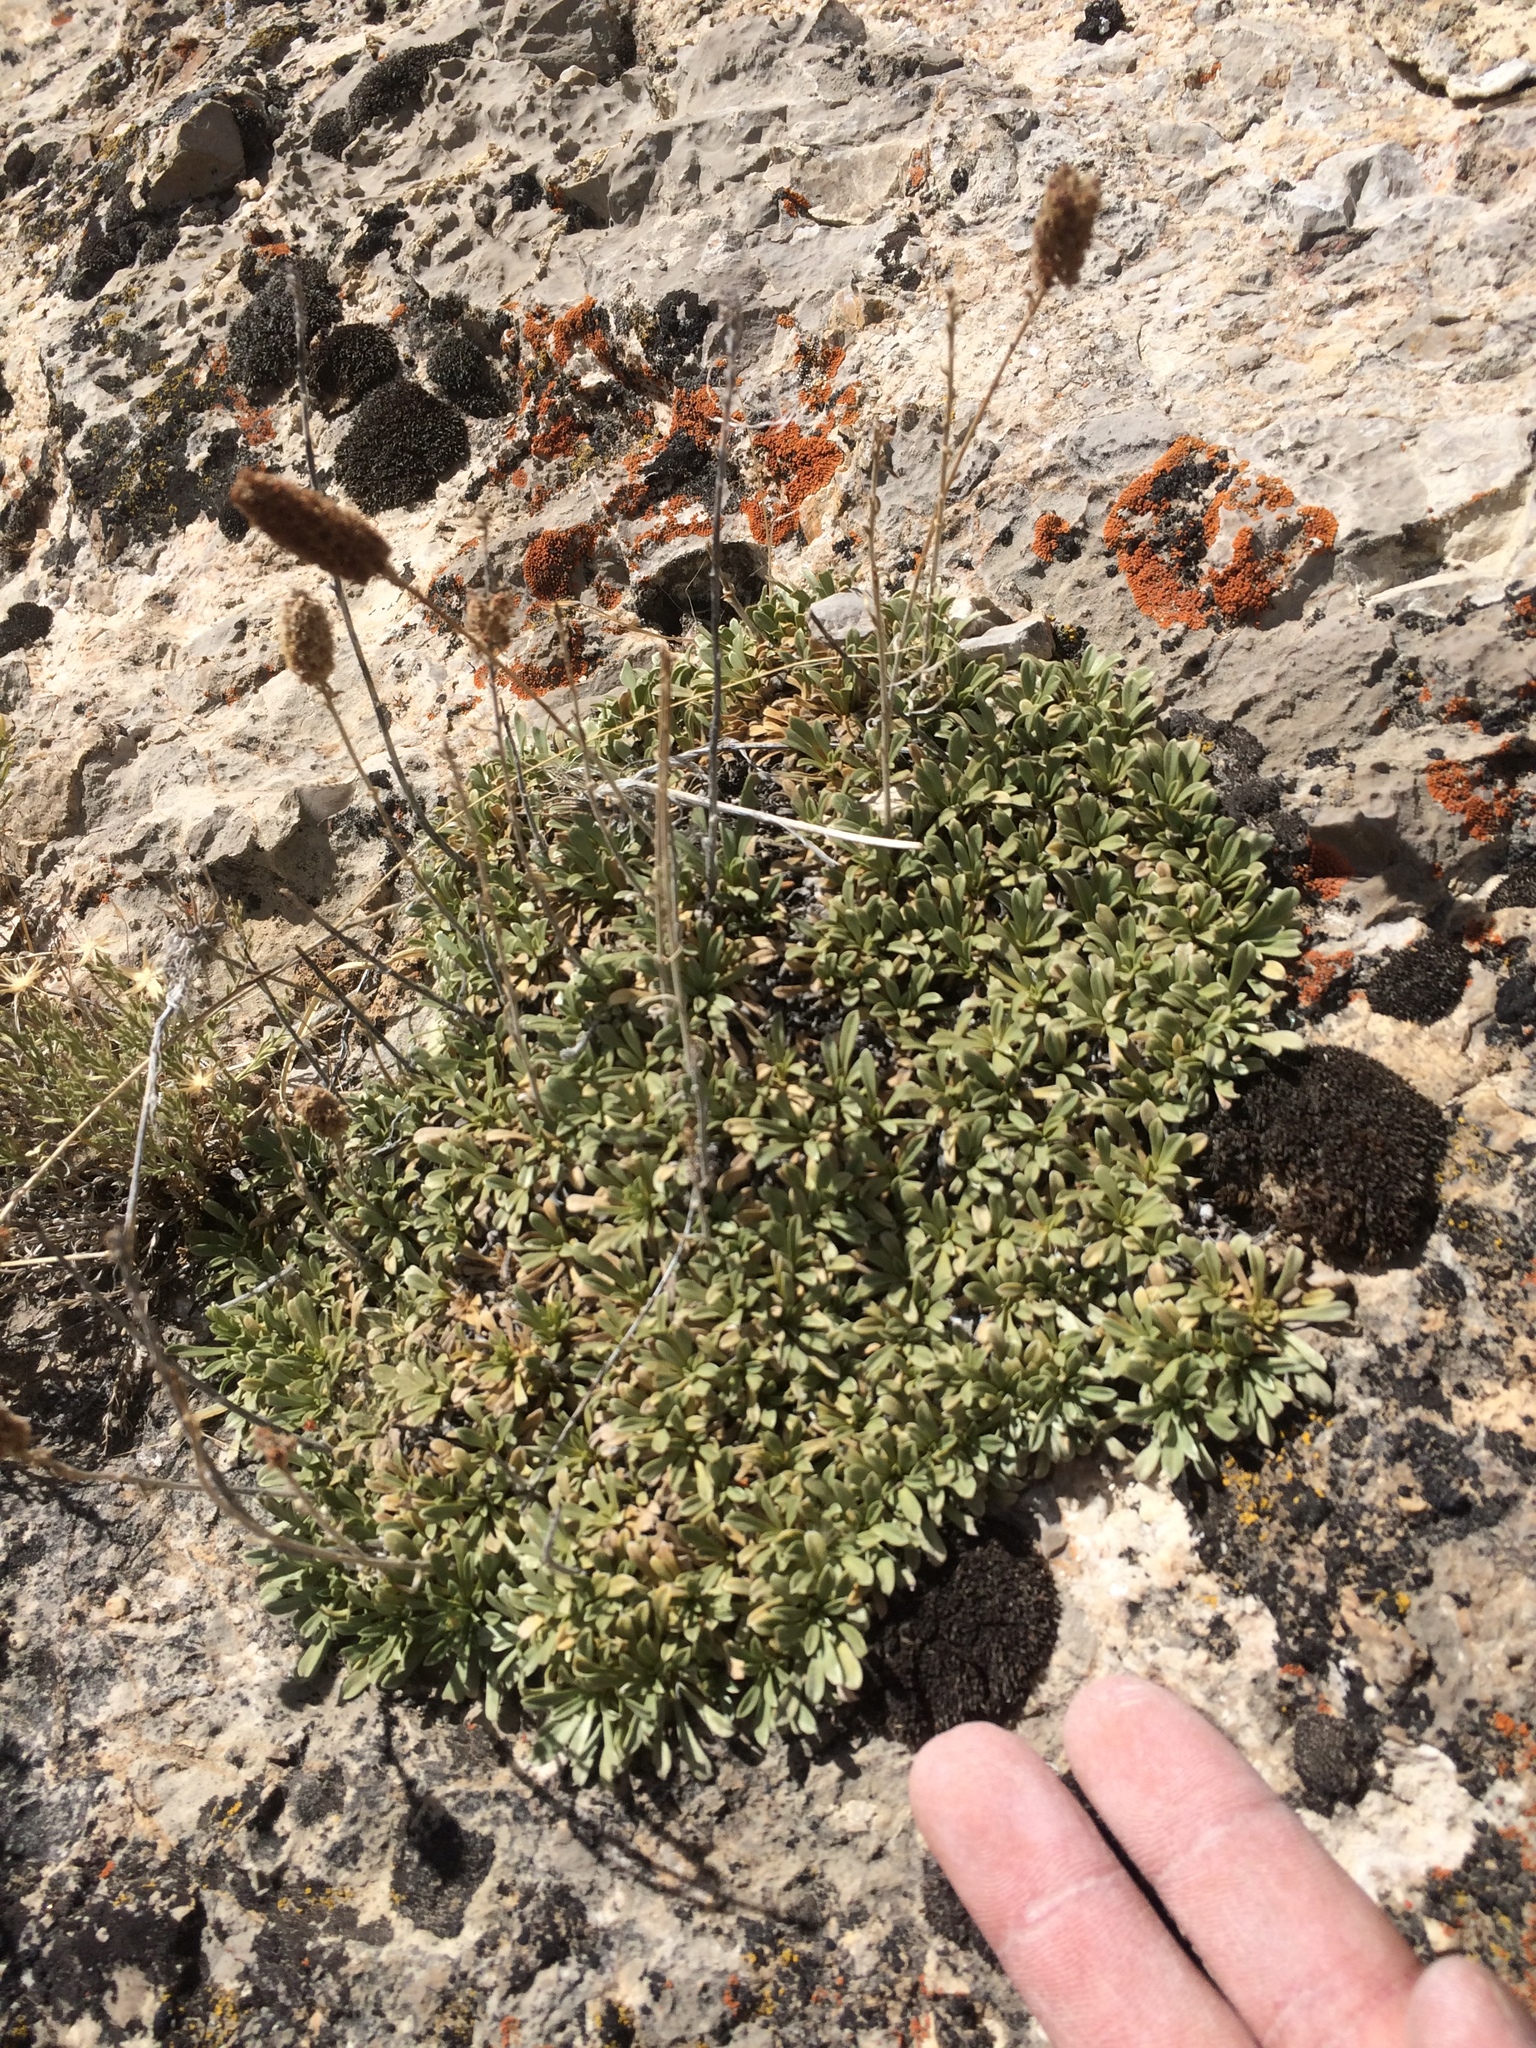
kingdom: Plantae
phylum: Tracheophyta
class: Magnoliopsida
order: Rosales
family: Rosaceae
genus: Petrophytum
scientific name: Petrophytum caespitosum
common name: Mat rockspirea
